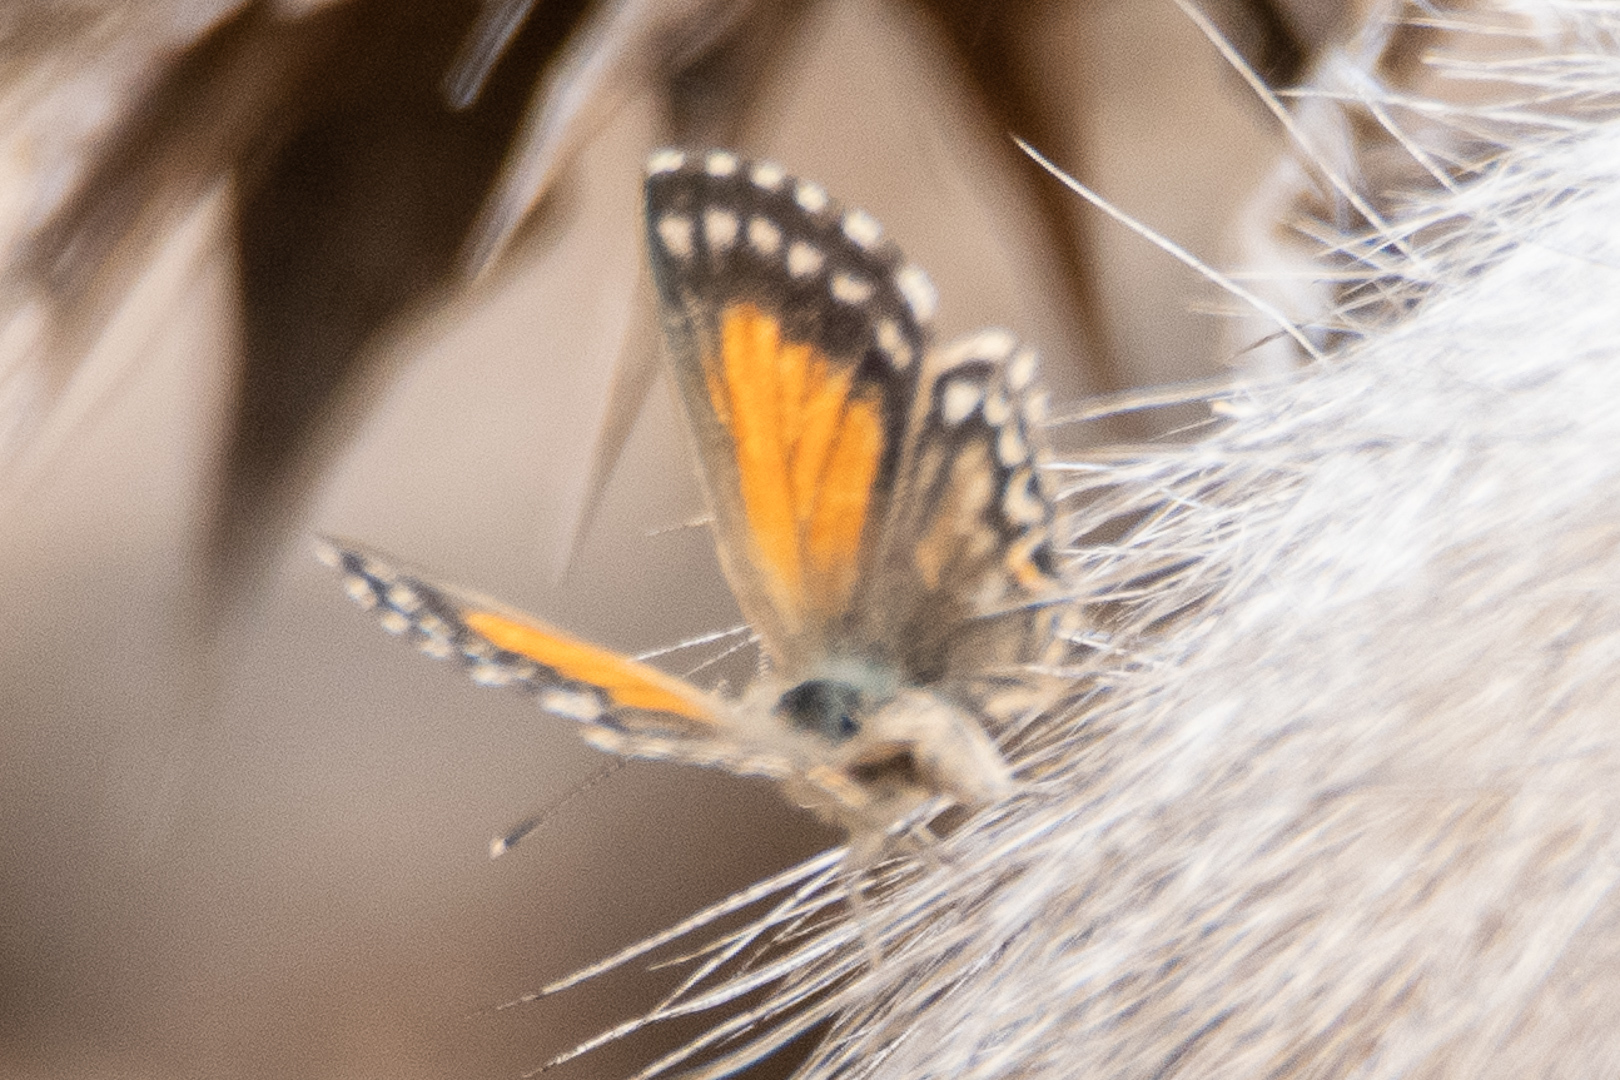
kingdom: Animalia
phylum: Arthropoda
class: Insecta
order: Lepidoptera
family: Lycaenidae
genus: Pseudolucia
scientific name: Pseudolucia chilensis
